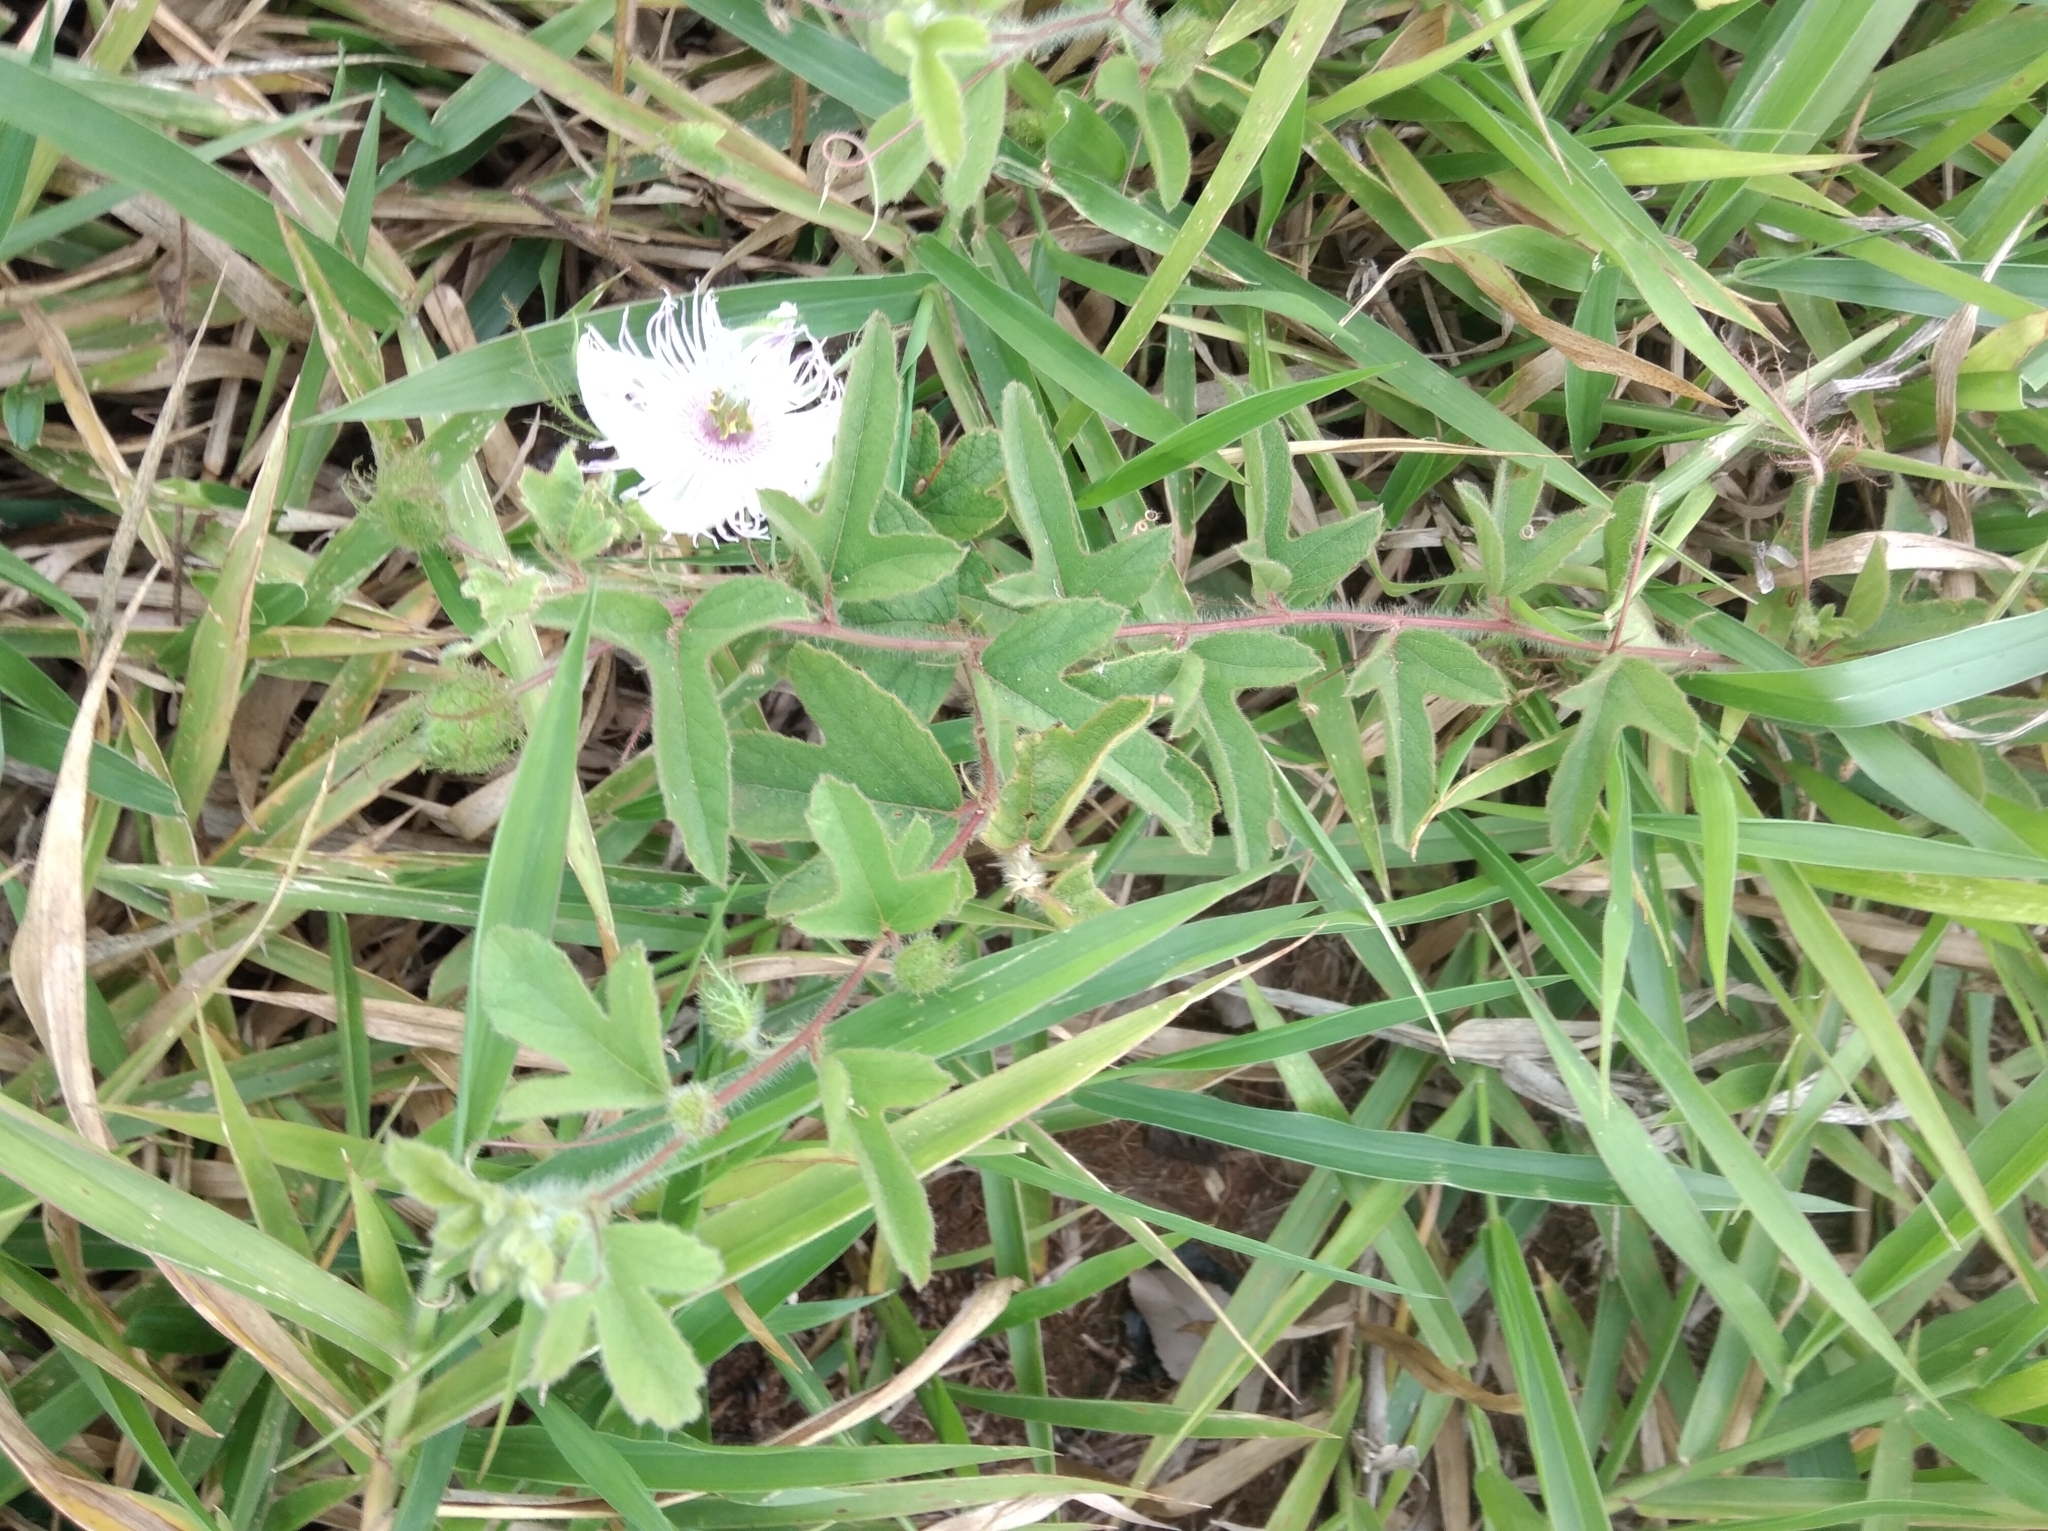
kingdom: Plantae
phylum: Tracheophyta
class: Magnoliopsida
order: Malpighiales
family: Passifloraceae
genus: Passiflora
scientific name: Passiflora chrysophylla
